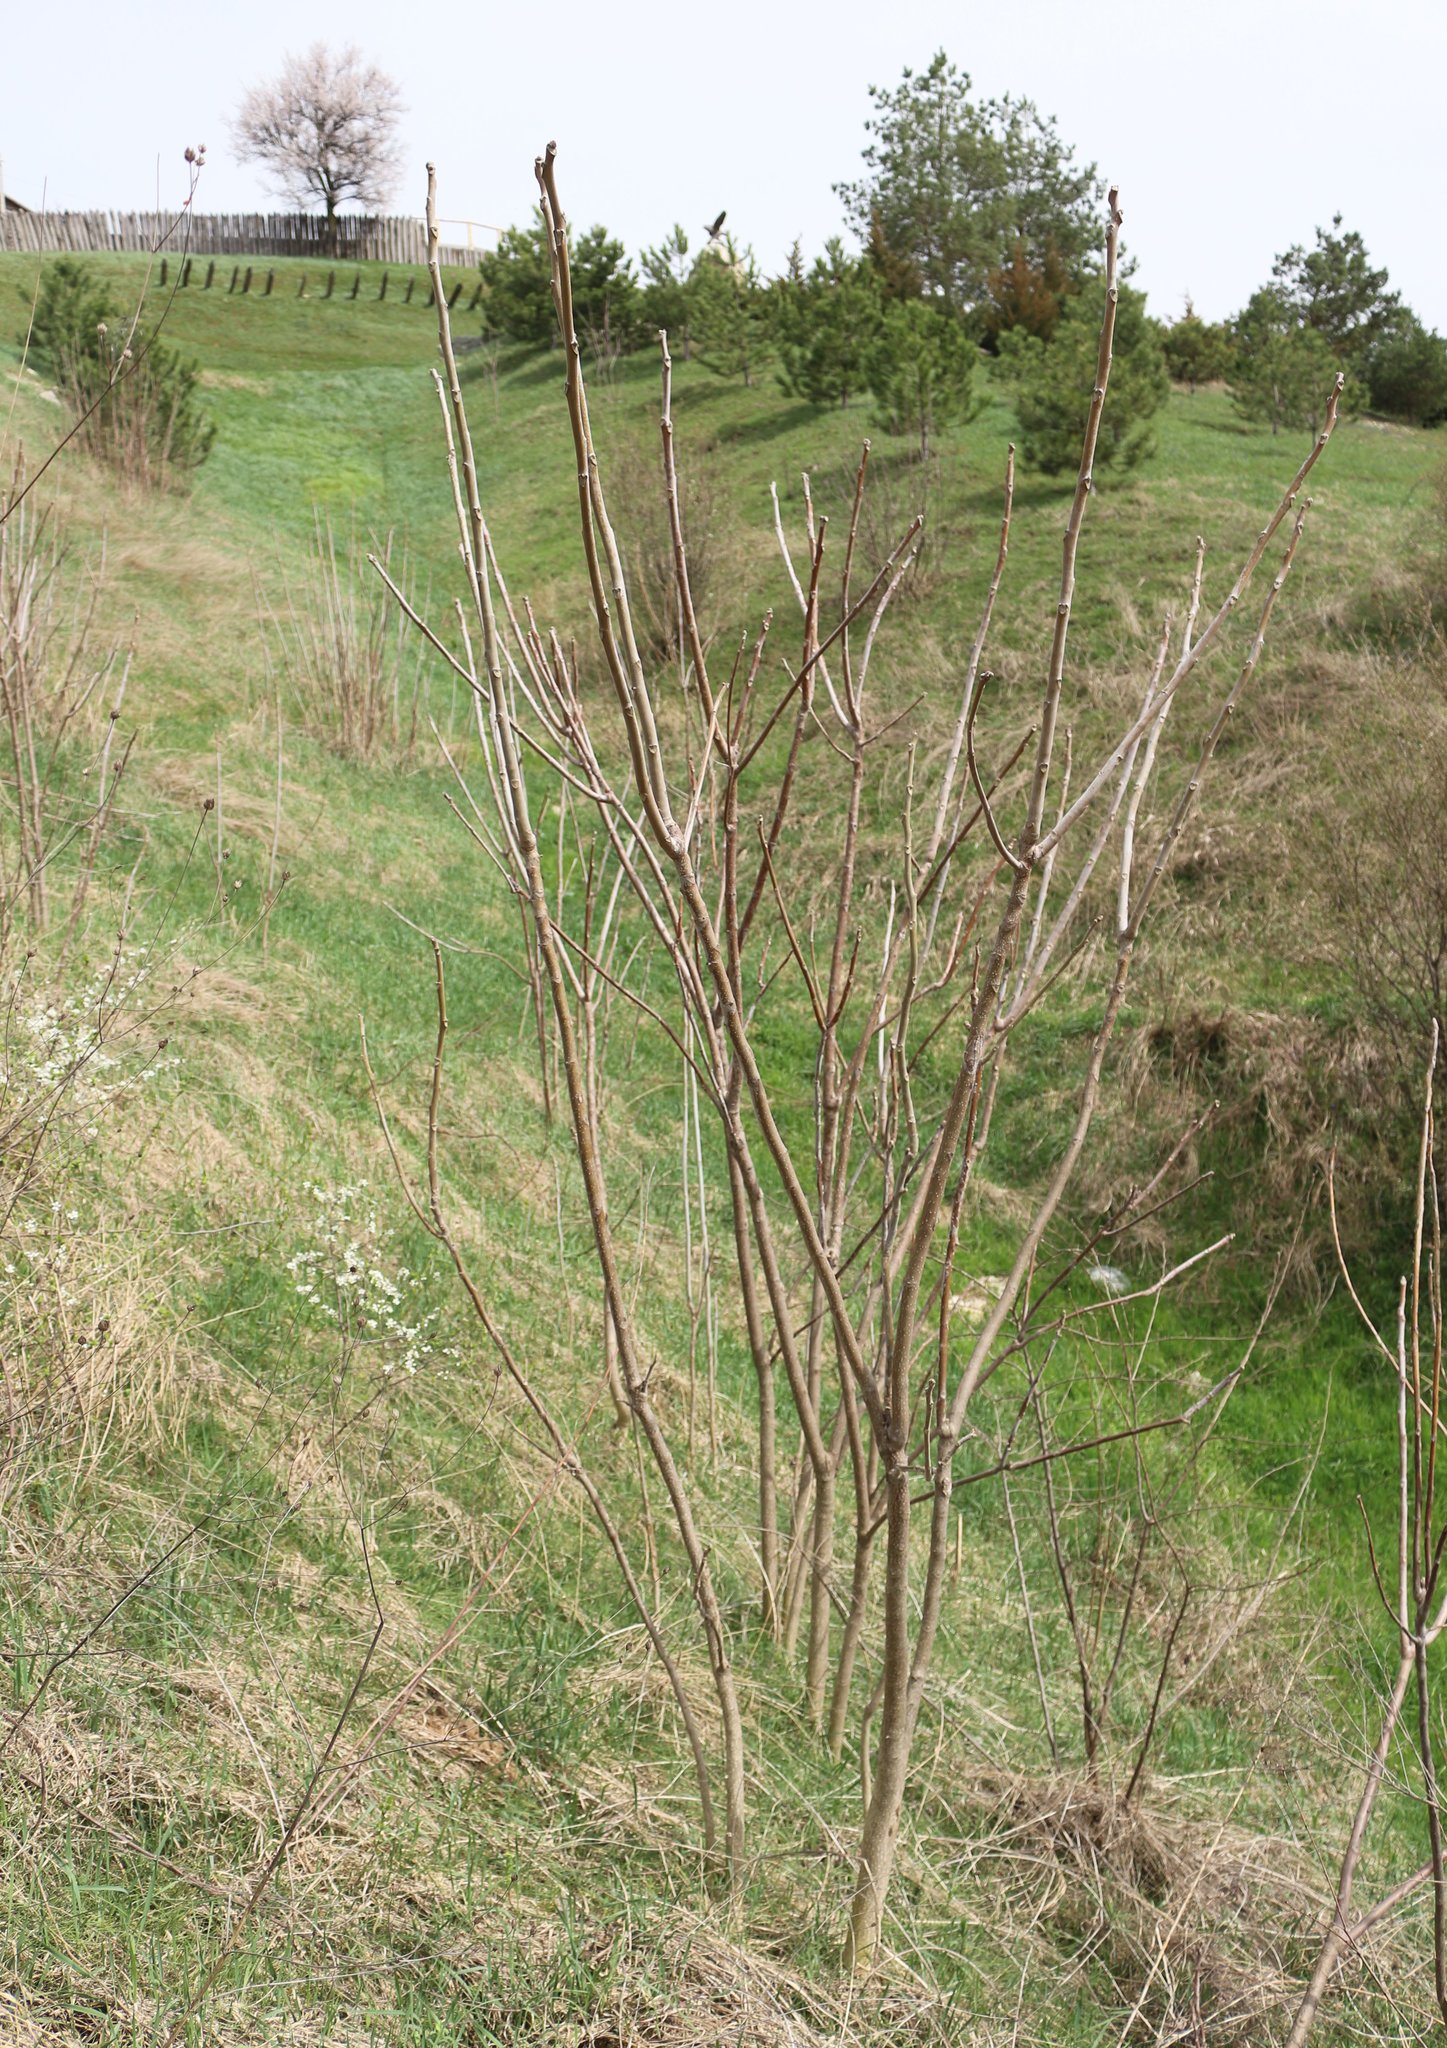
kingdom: Plantae
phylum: Tracheophyta
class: Magnoliopsida
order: Sapindales
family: Simaroubaceae
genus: Ailanthus
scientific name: Ailanthus altissima
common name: Tree-of-heaven
